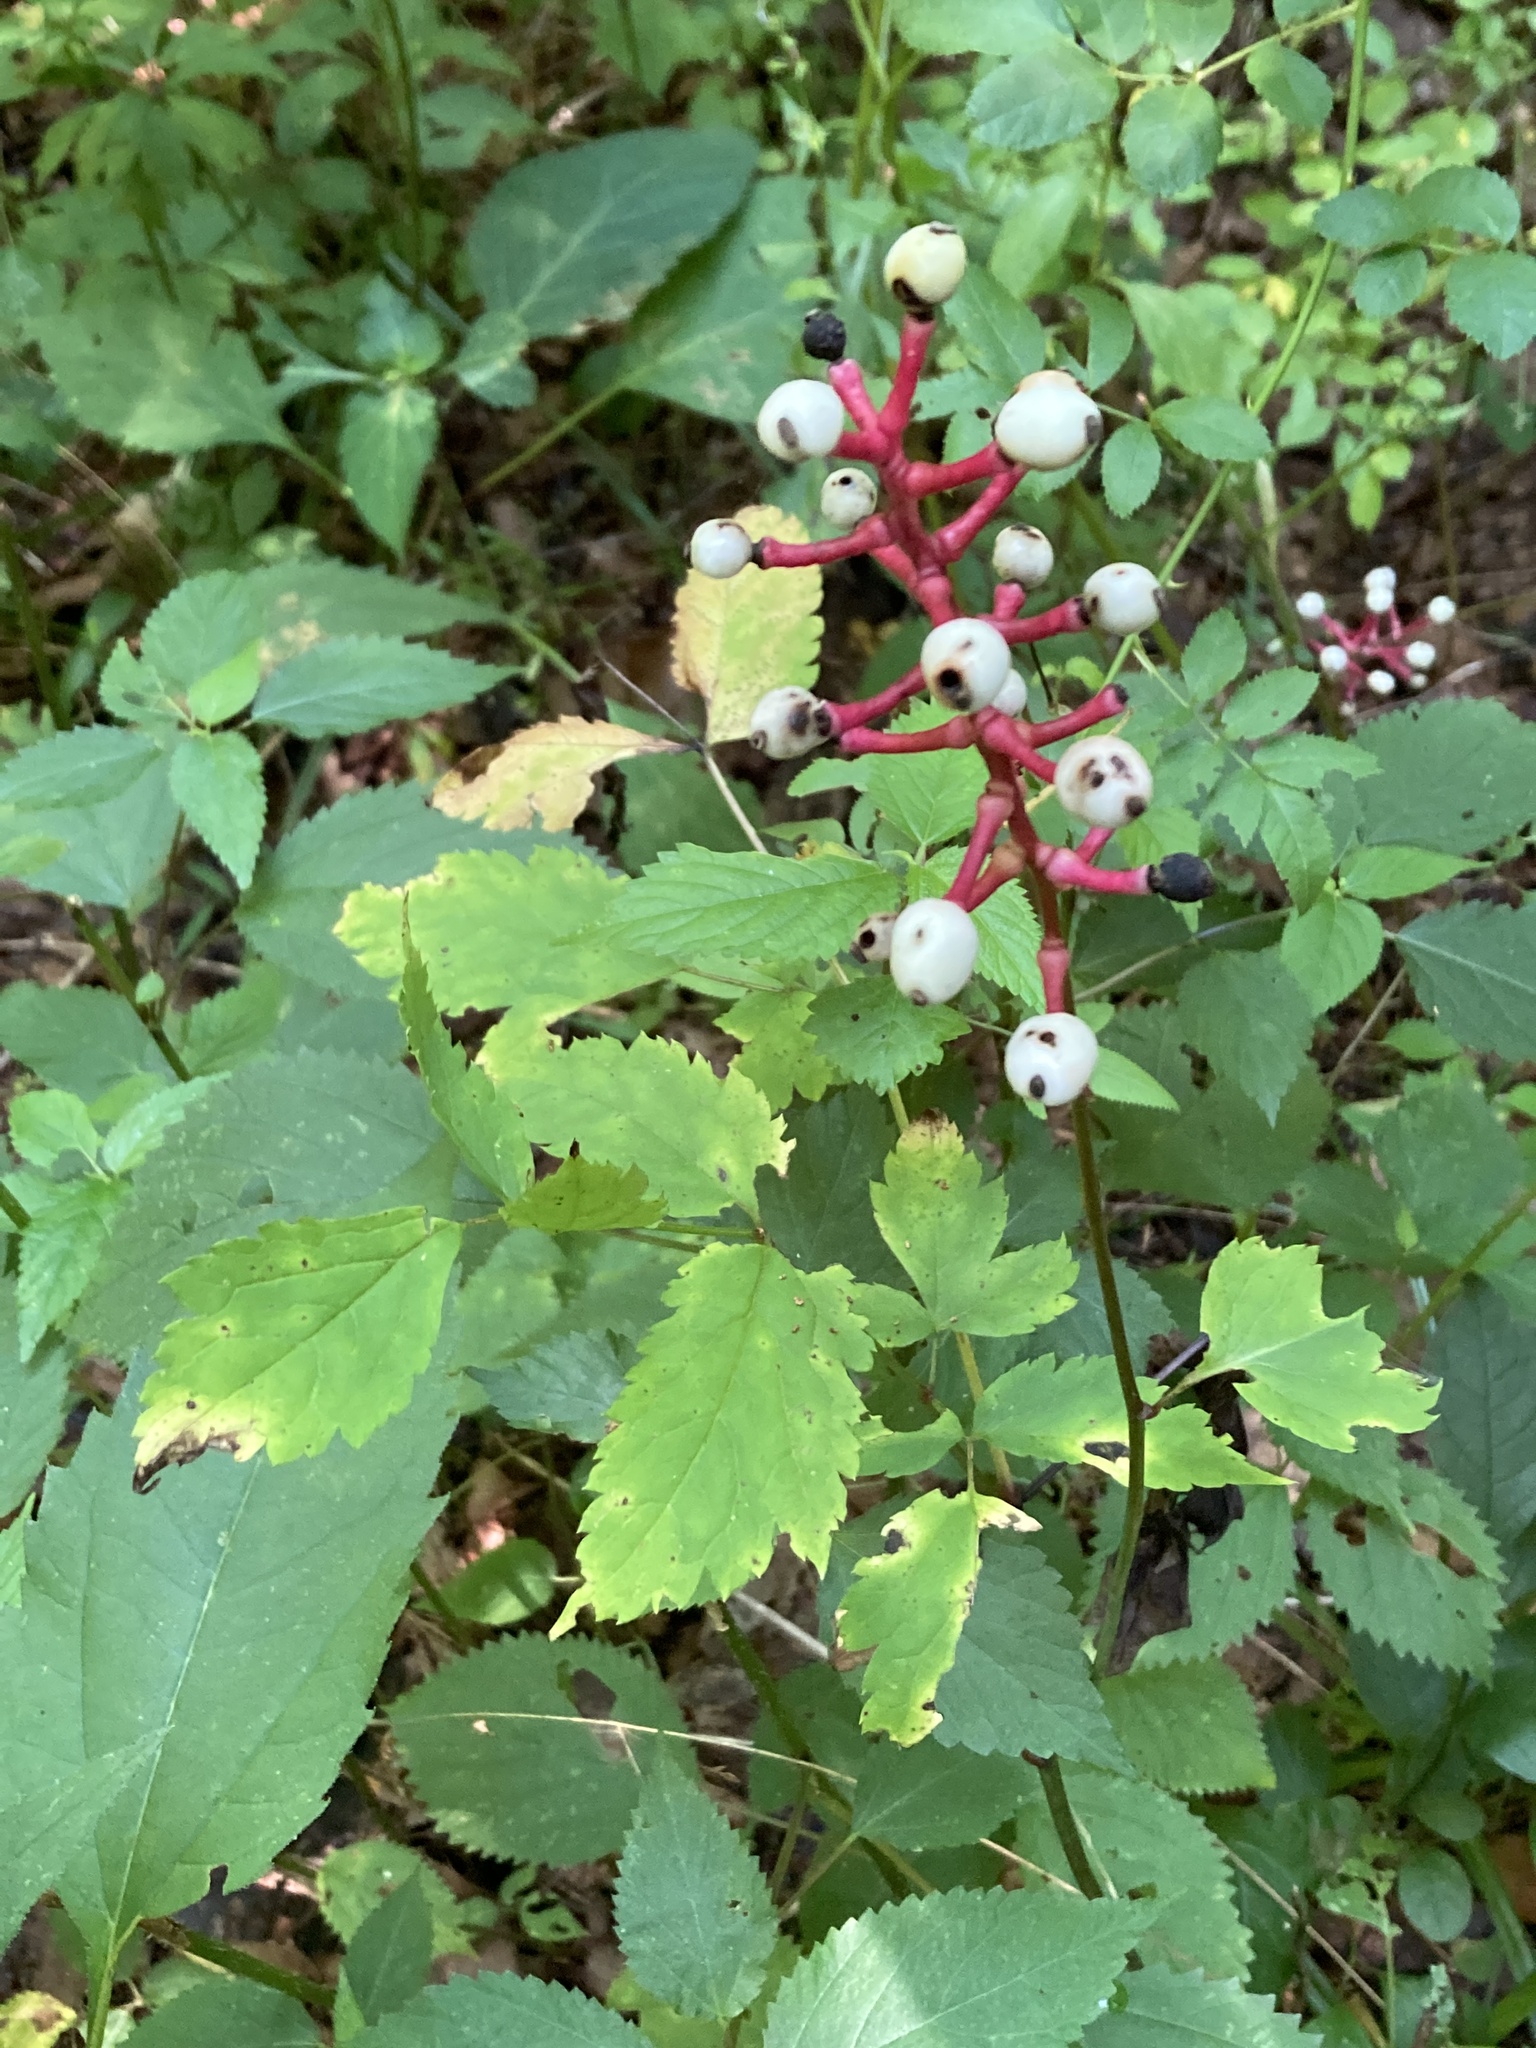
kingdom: Plantae
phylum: Tracheophyta
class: Magnoliopsida
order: Ranunculales
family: Ranunculaceae
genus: Actaea
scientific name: Actaea pachypoda
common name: Doll's-eyes
